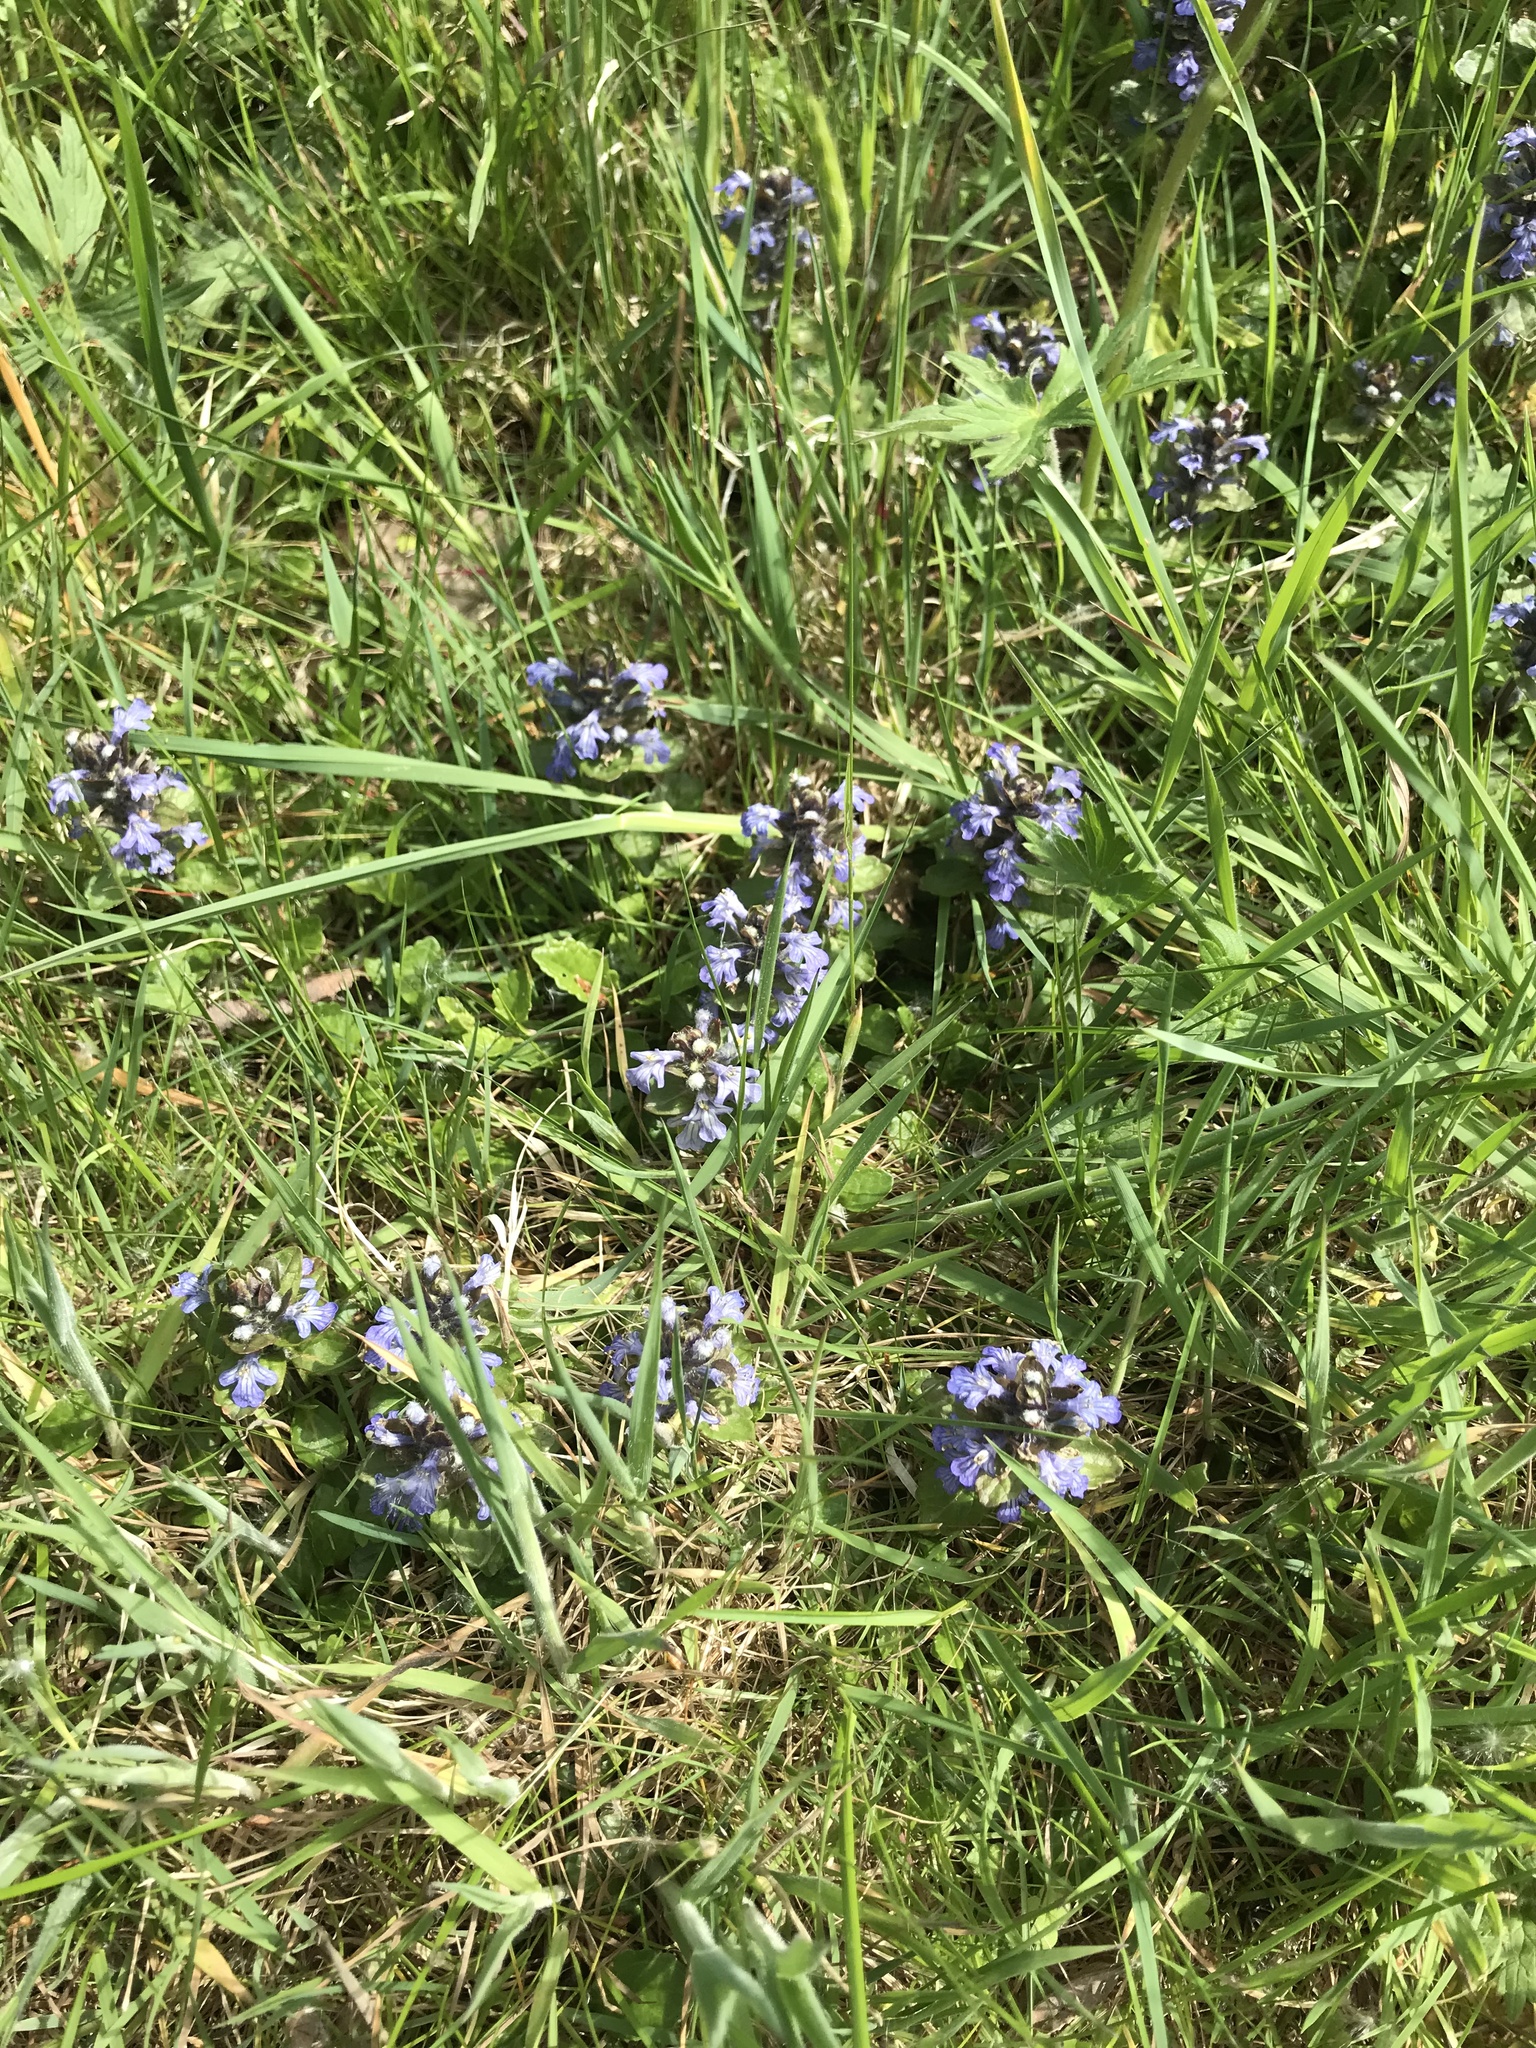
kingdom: Plantae
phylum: Tracheophyta
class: Magnoliopsida
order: Lamiales
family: Lamiaceae
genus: Ajuga
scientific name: Ajuga reptans
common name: Bugle
